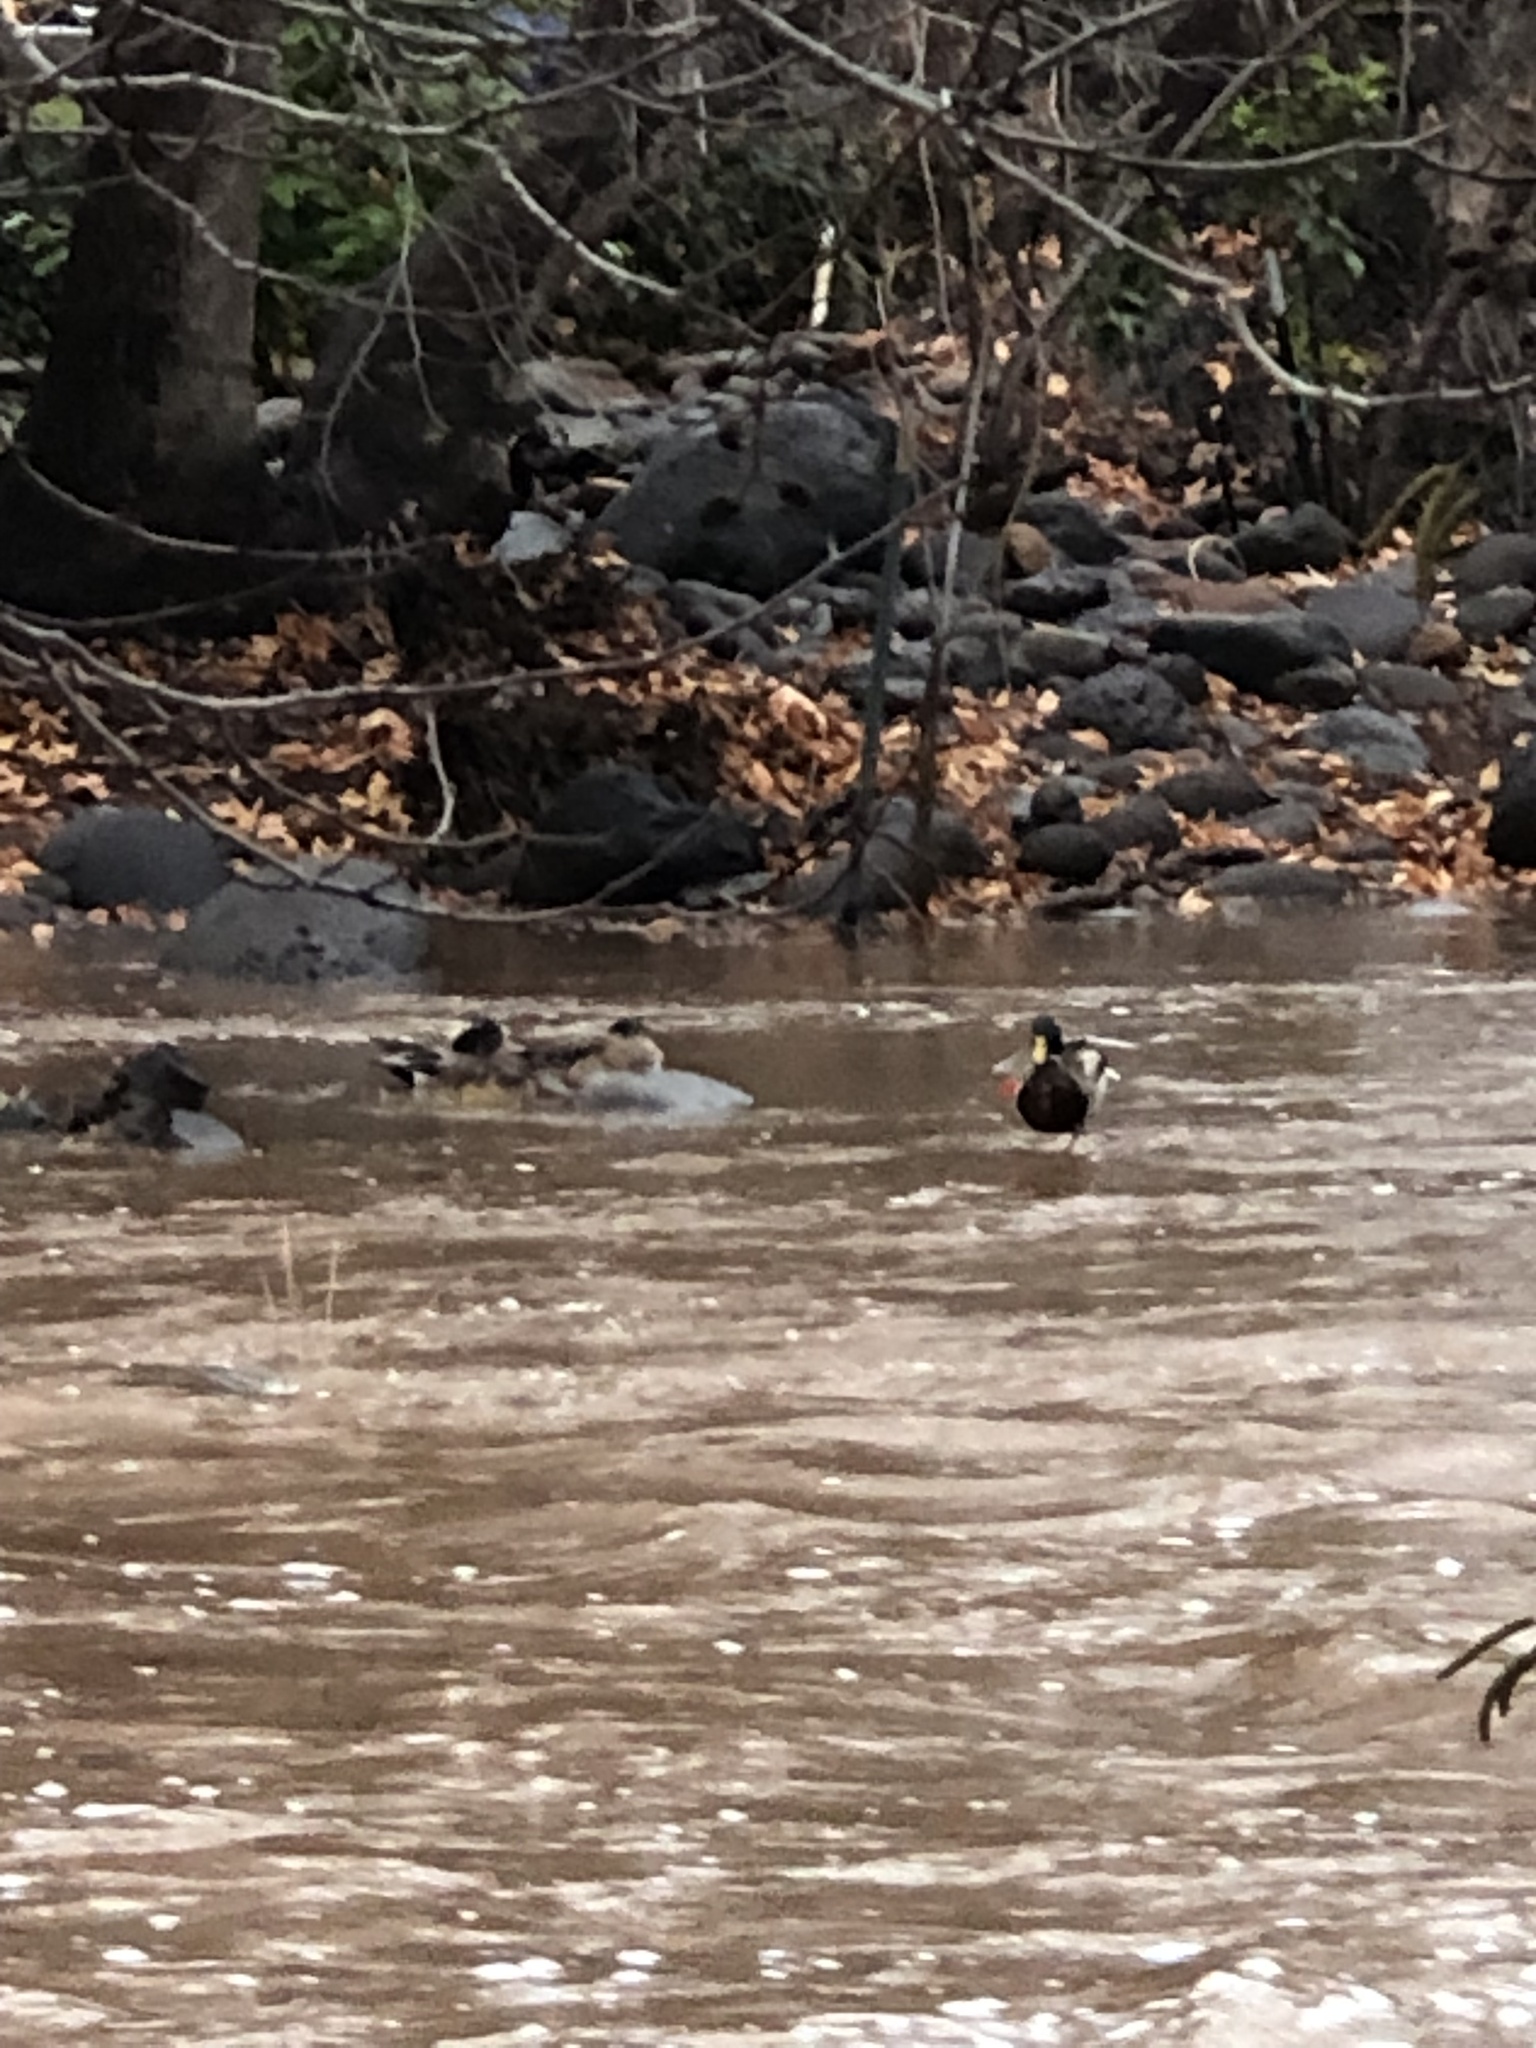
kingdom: Animalia
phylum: Chordata
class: Aves
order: Anseriformes
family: Anatidae
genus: Anas
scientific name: Anas platyrhynchos
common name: Mallard
